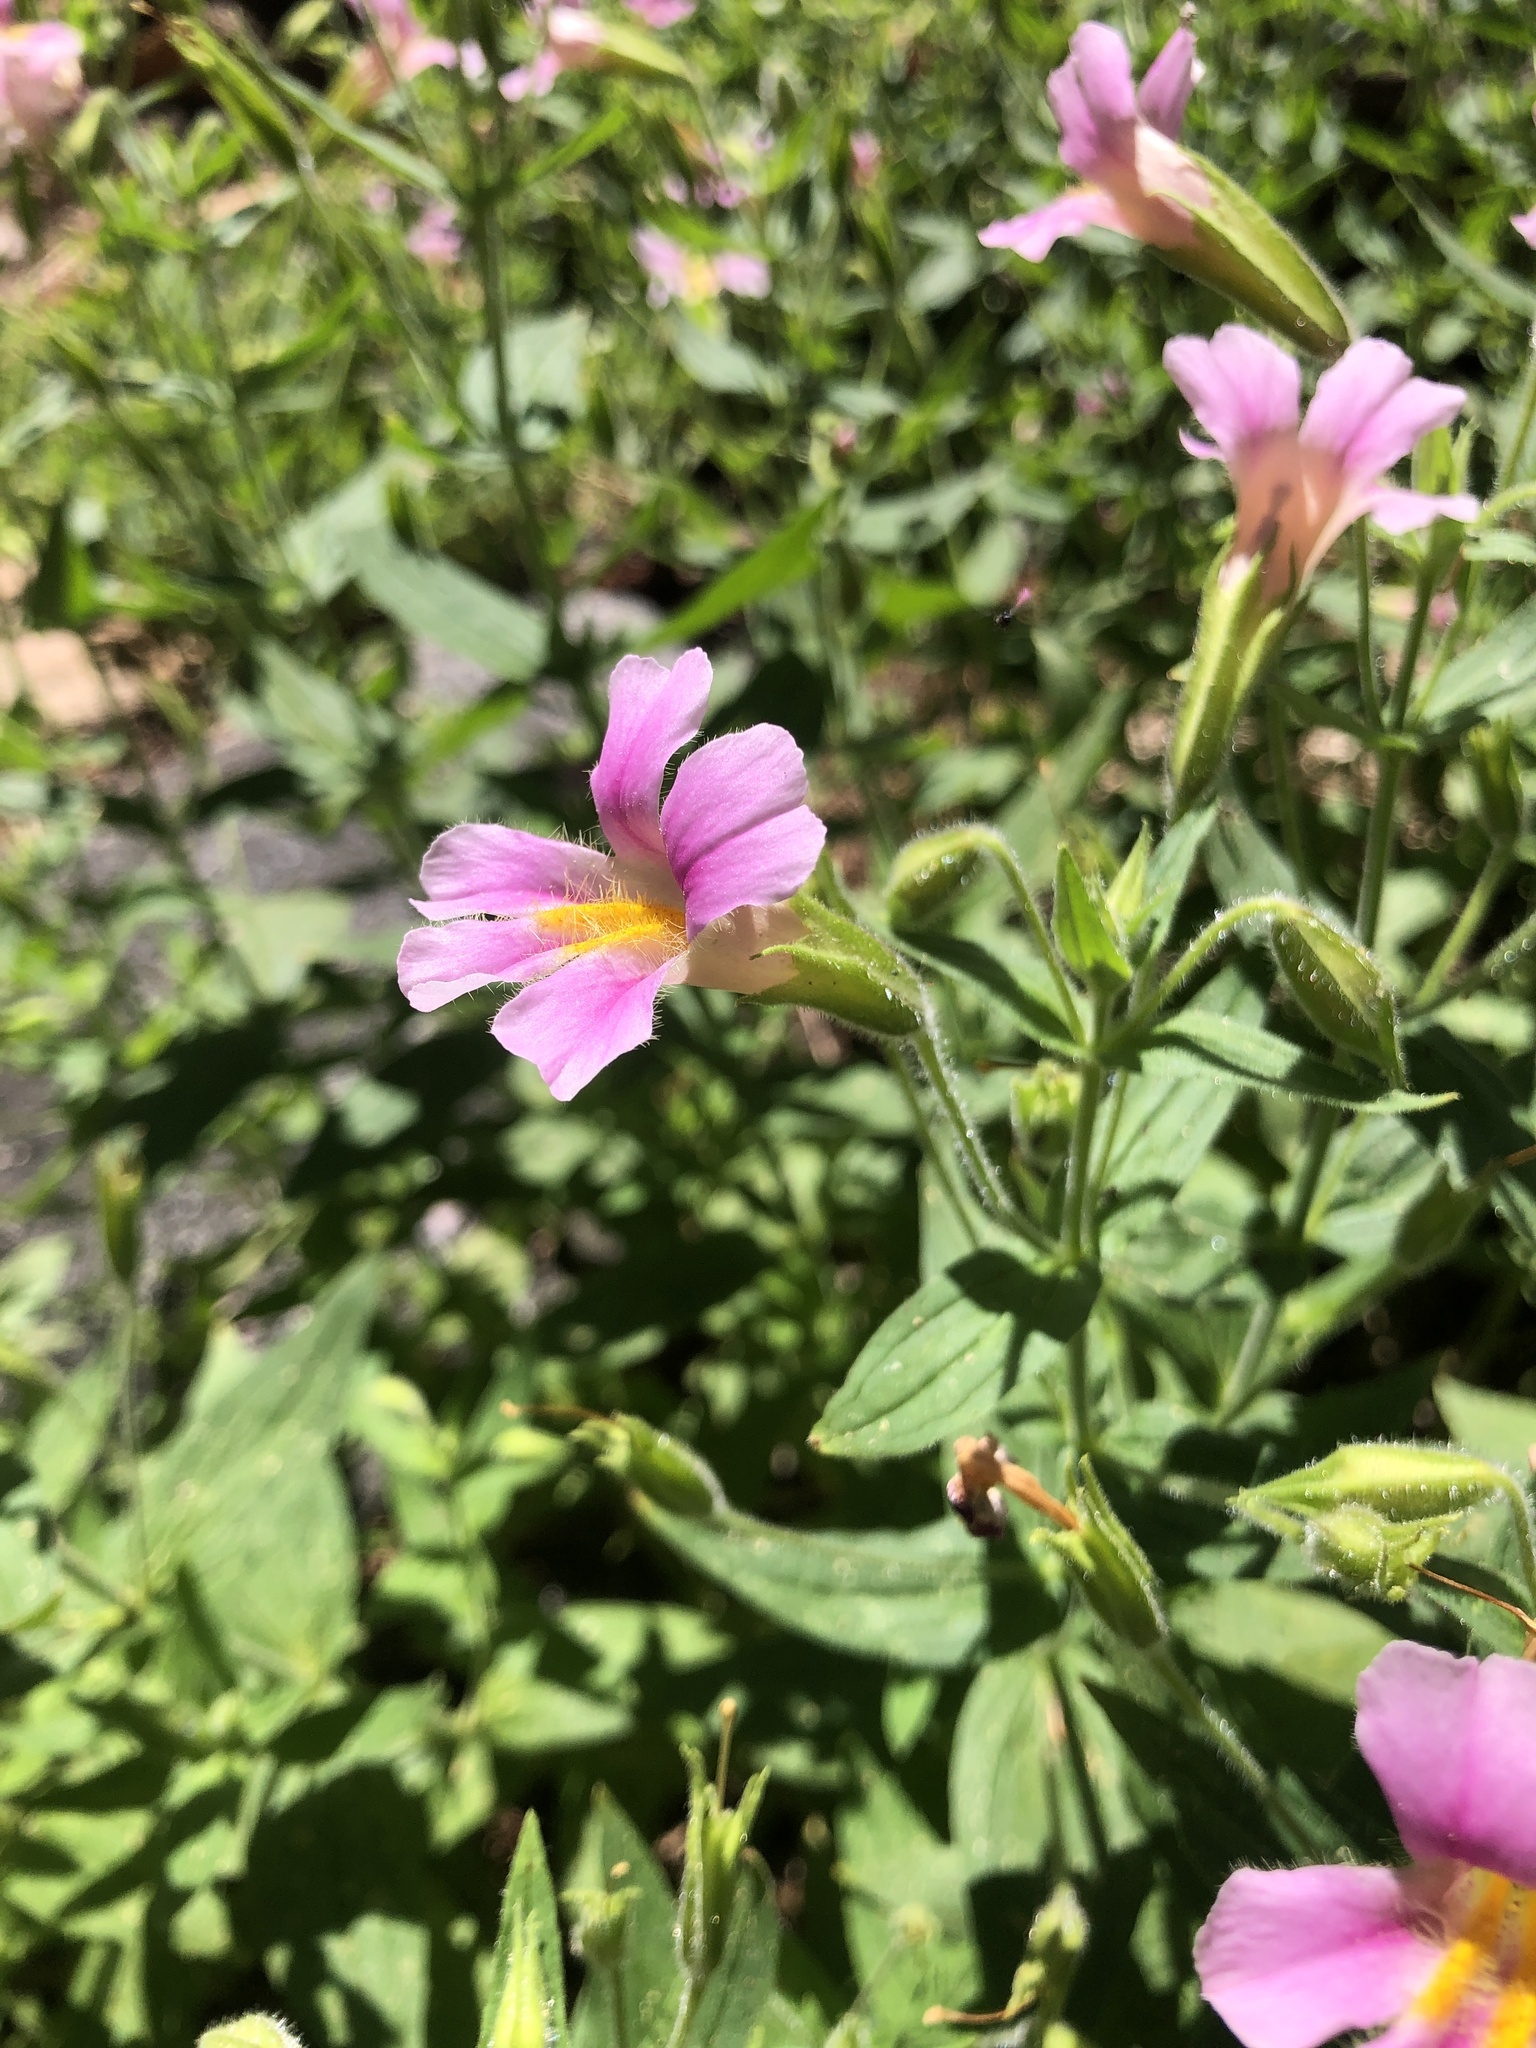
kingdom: Plantae
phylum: Tracheophyta
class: Magnoliopsida
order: Lamiales
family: Phrymaceae
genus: Erythranthe
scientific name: Erythranthe erubescens
